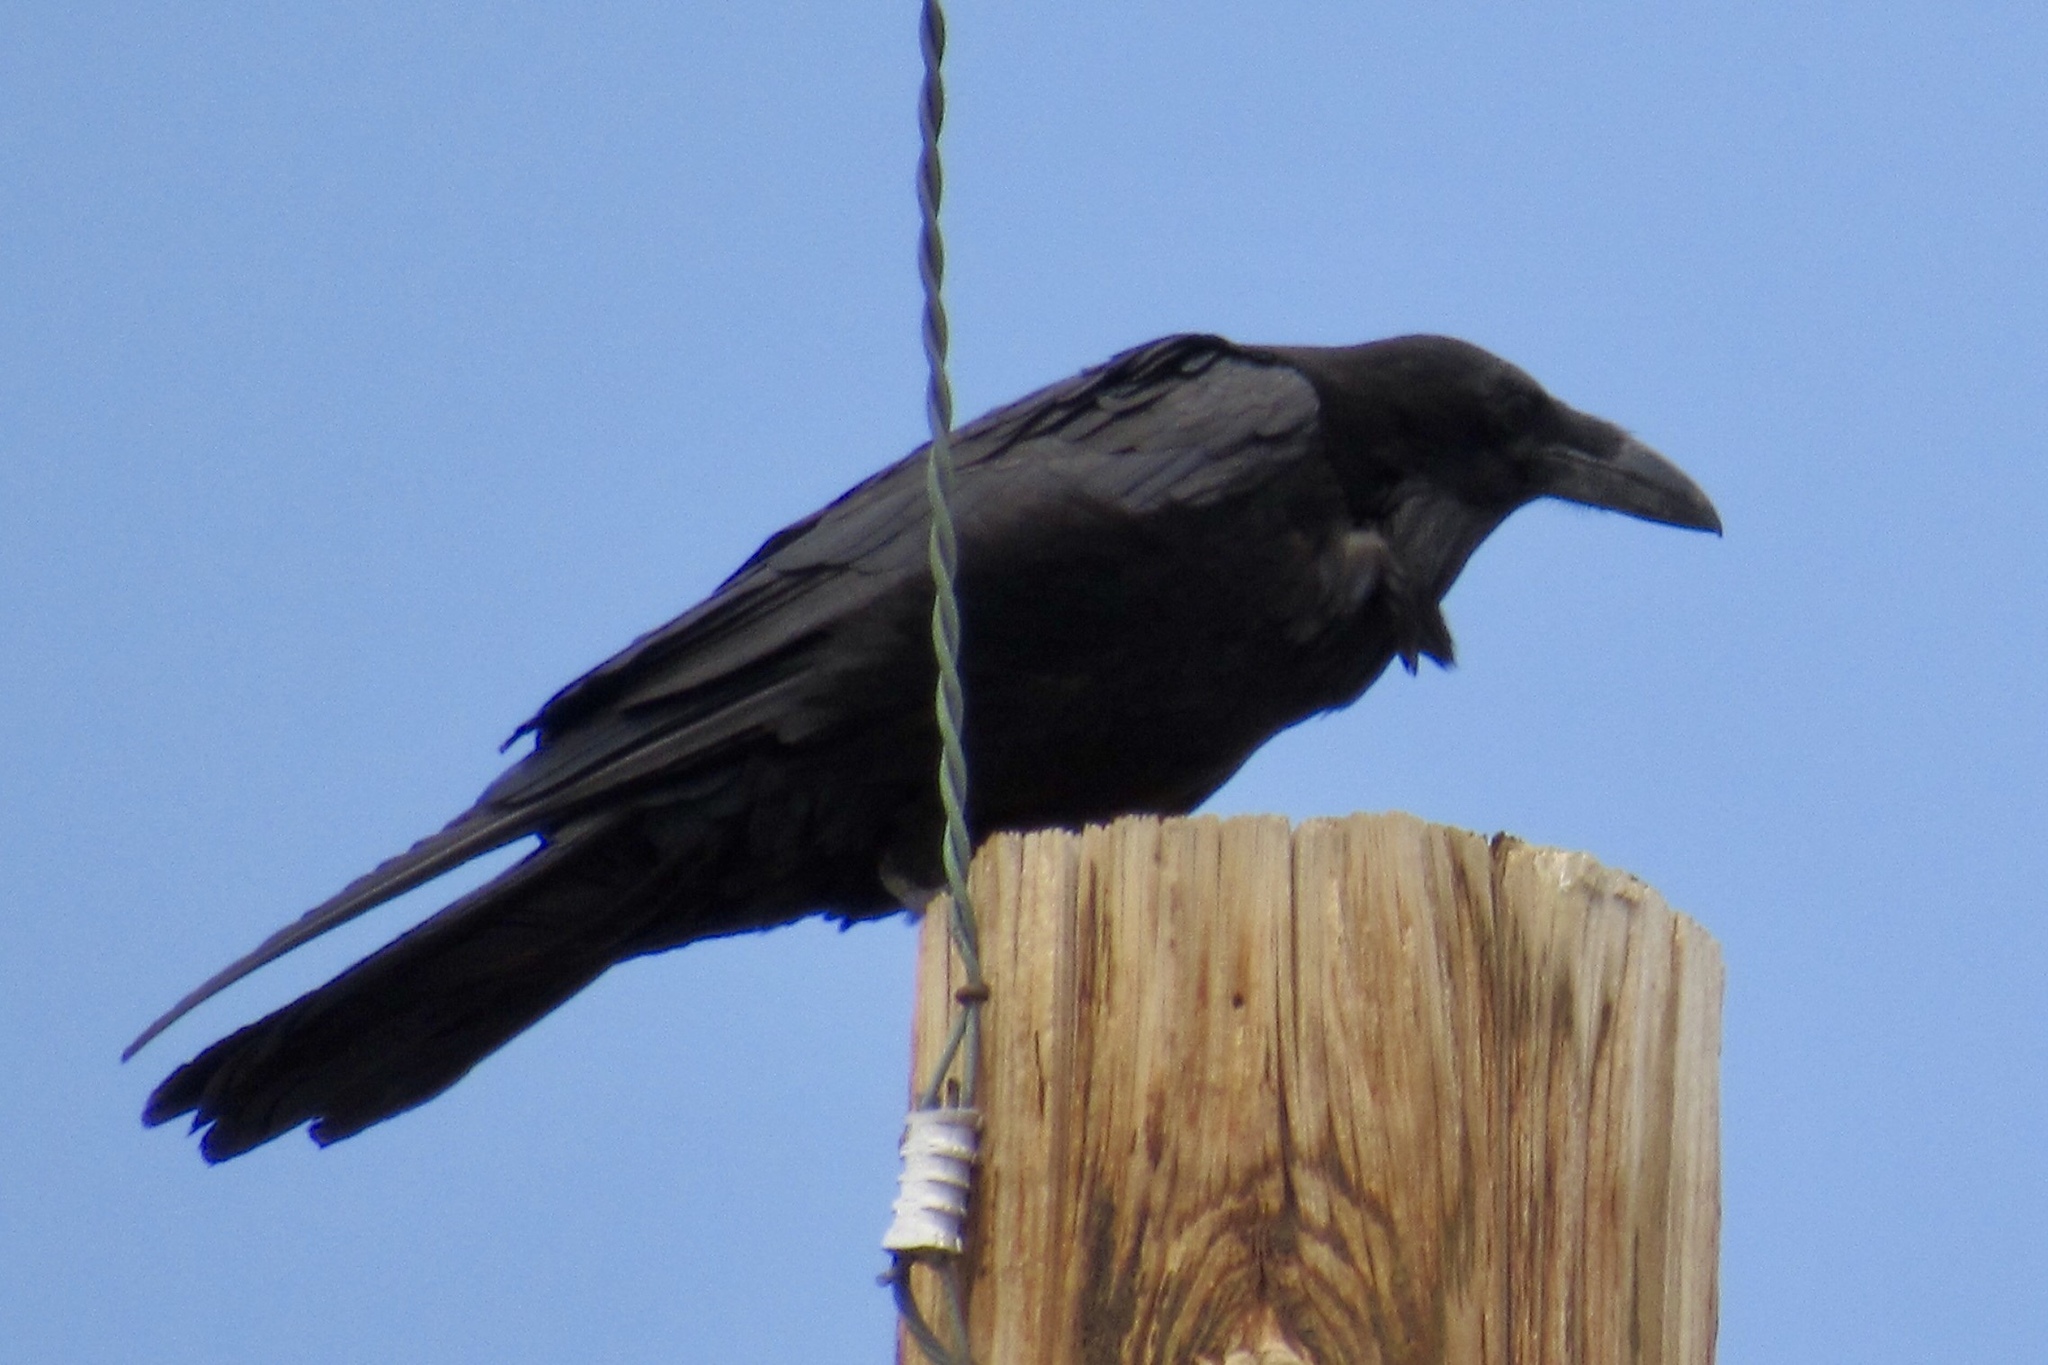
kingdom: Animalia
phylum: Chordata
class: Aves
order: Passeriformes
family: Corvidae
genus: Corvus
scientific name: Corvus corax
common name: Common raven
